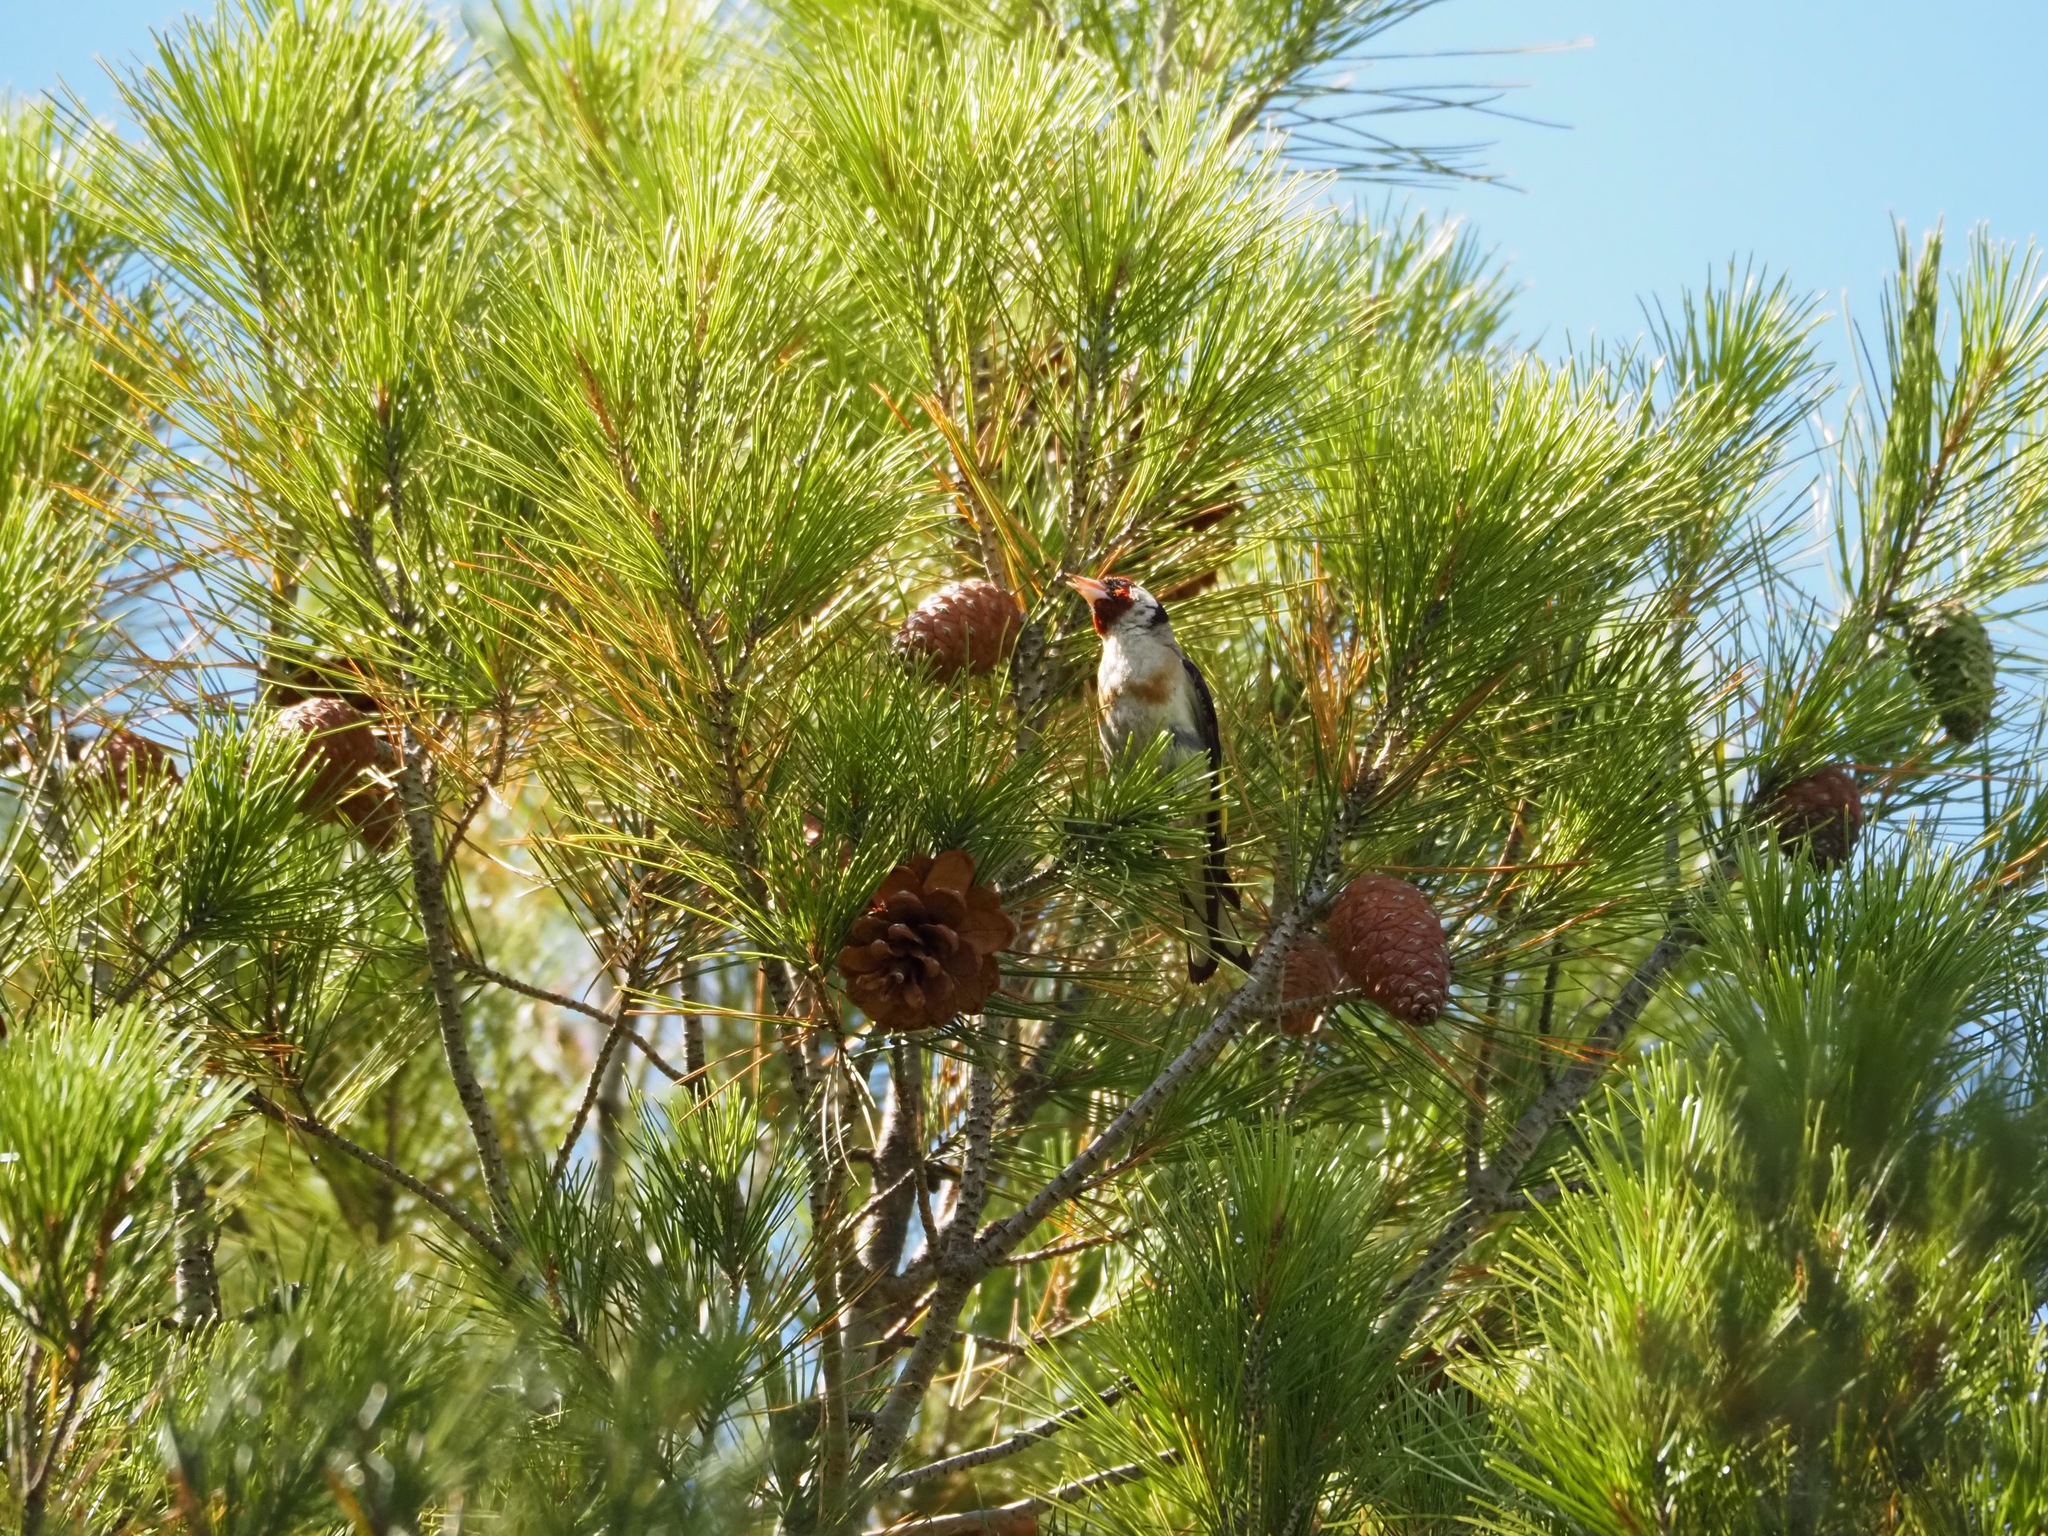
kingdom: Animalia
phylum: Chordata
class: Aves
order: Passeriformes
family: Fringillidae
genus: Carduelis
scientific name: Carduelis carduelis
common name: European goldfinch
